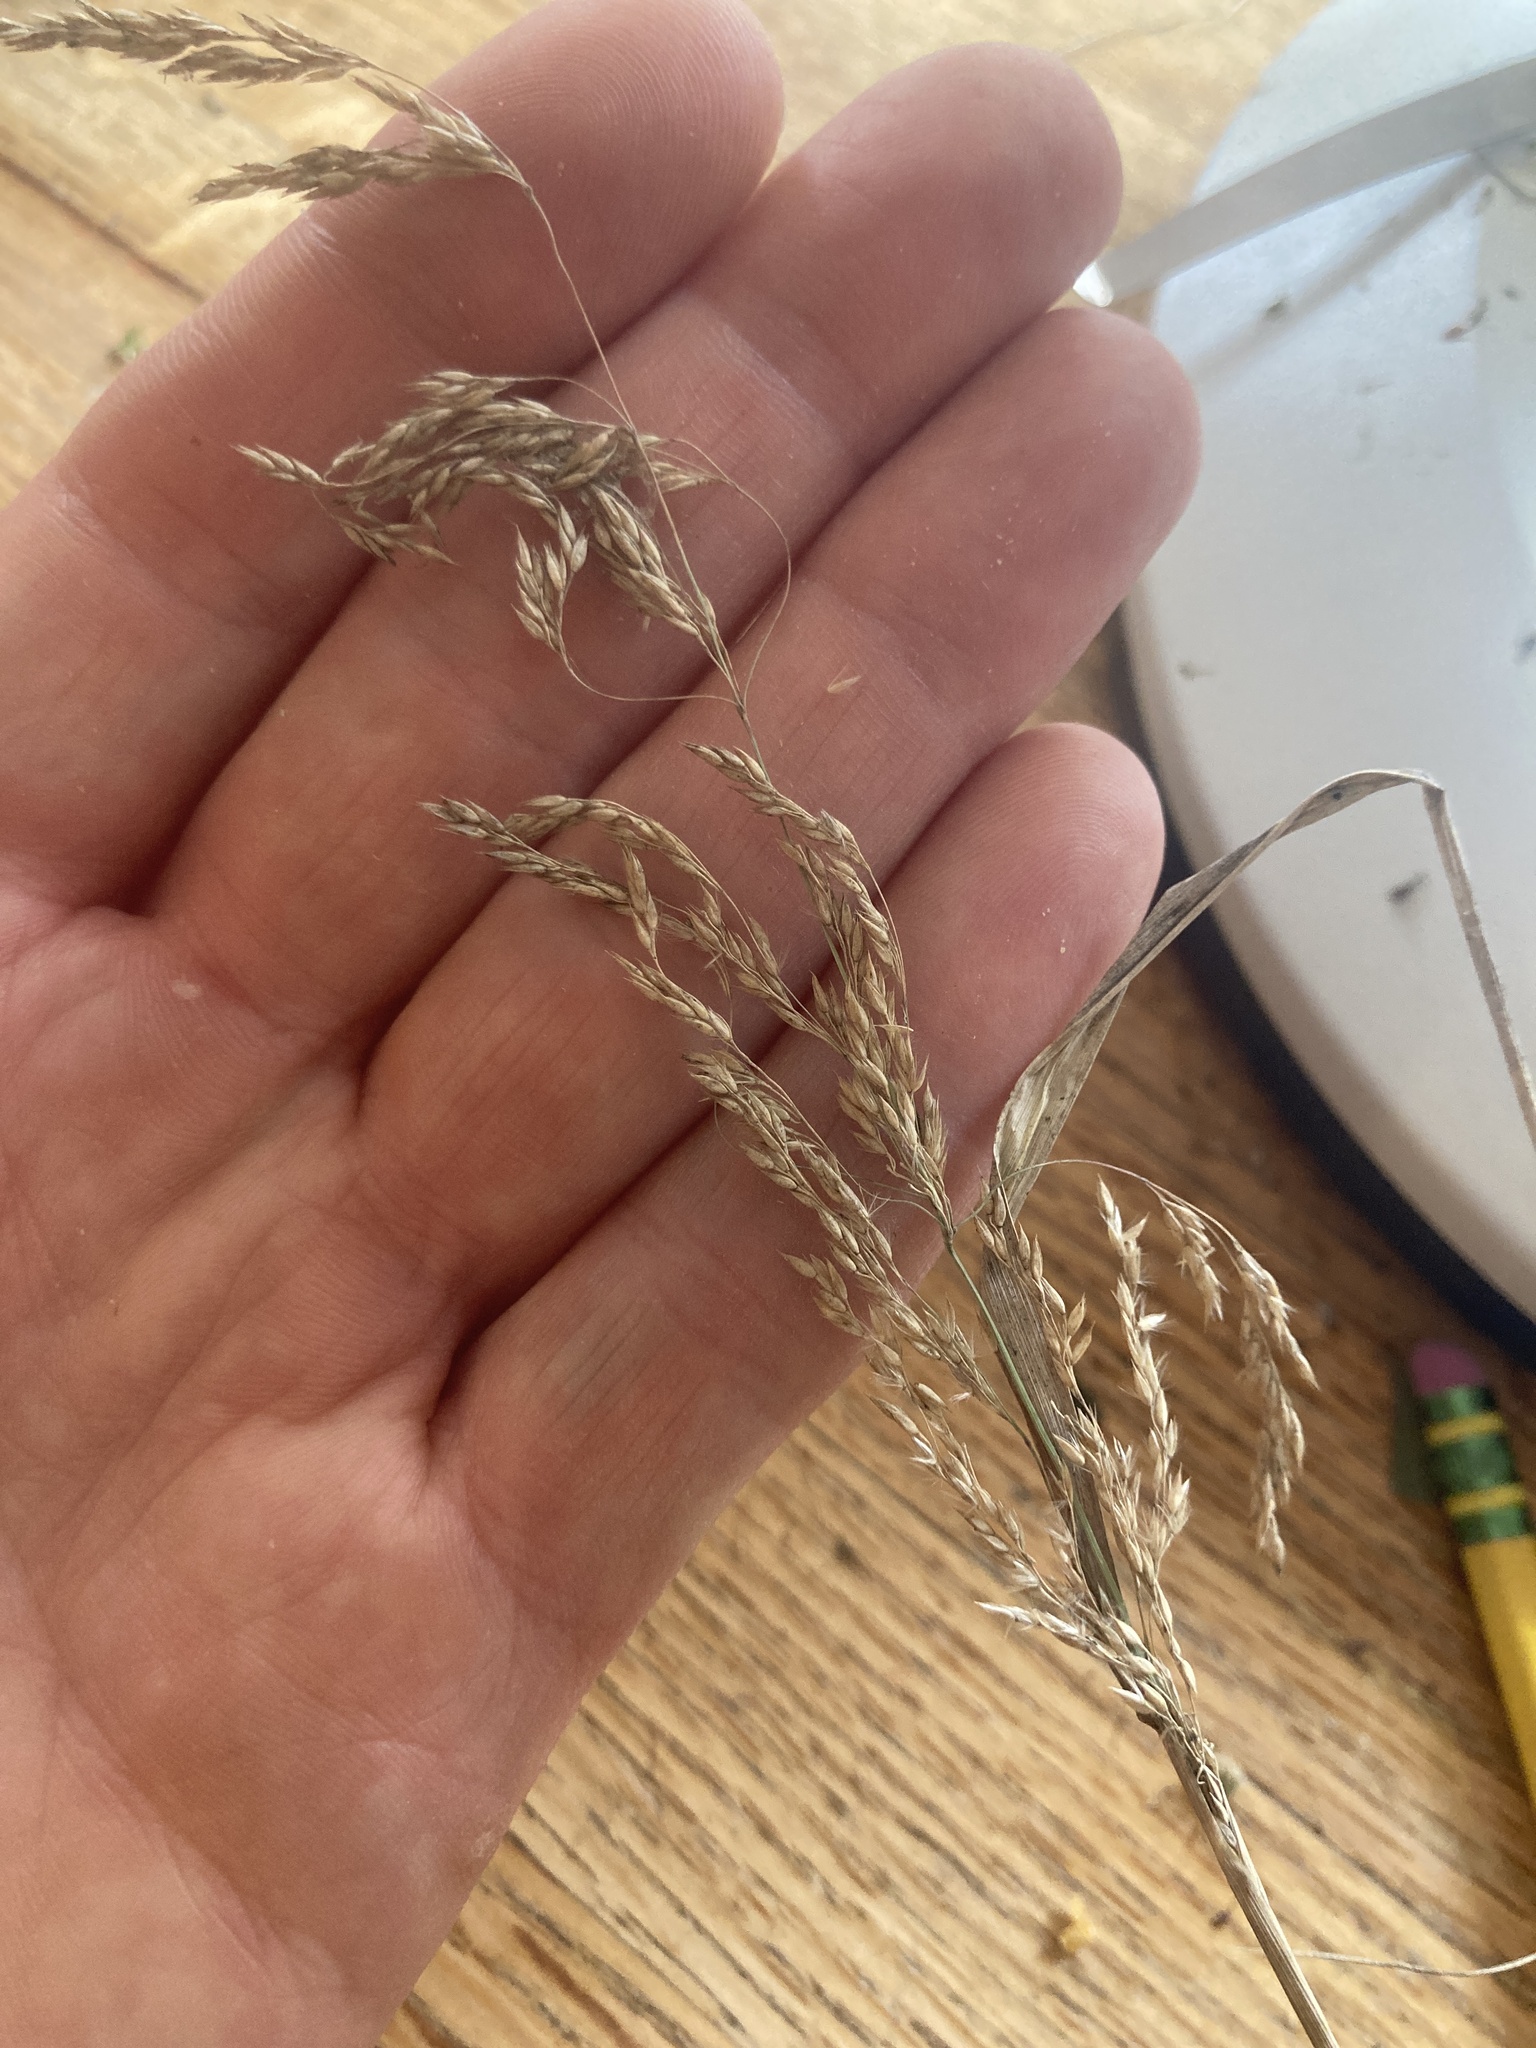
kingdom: Plantae
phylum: Tracheophyta
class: Liliopsida
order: Poales
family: Poaceae
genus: Calamagrostis
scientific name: Calamagrostis canadensis
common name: Canada bluejoint
